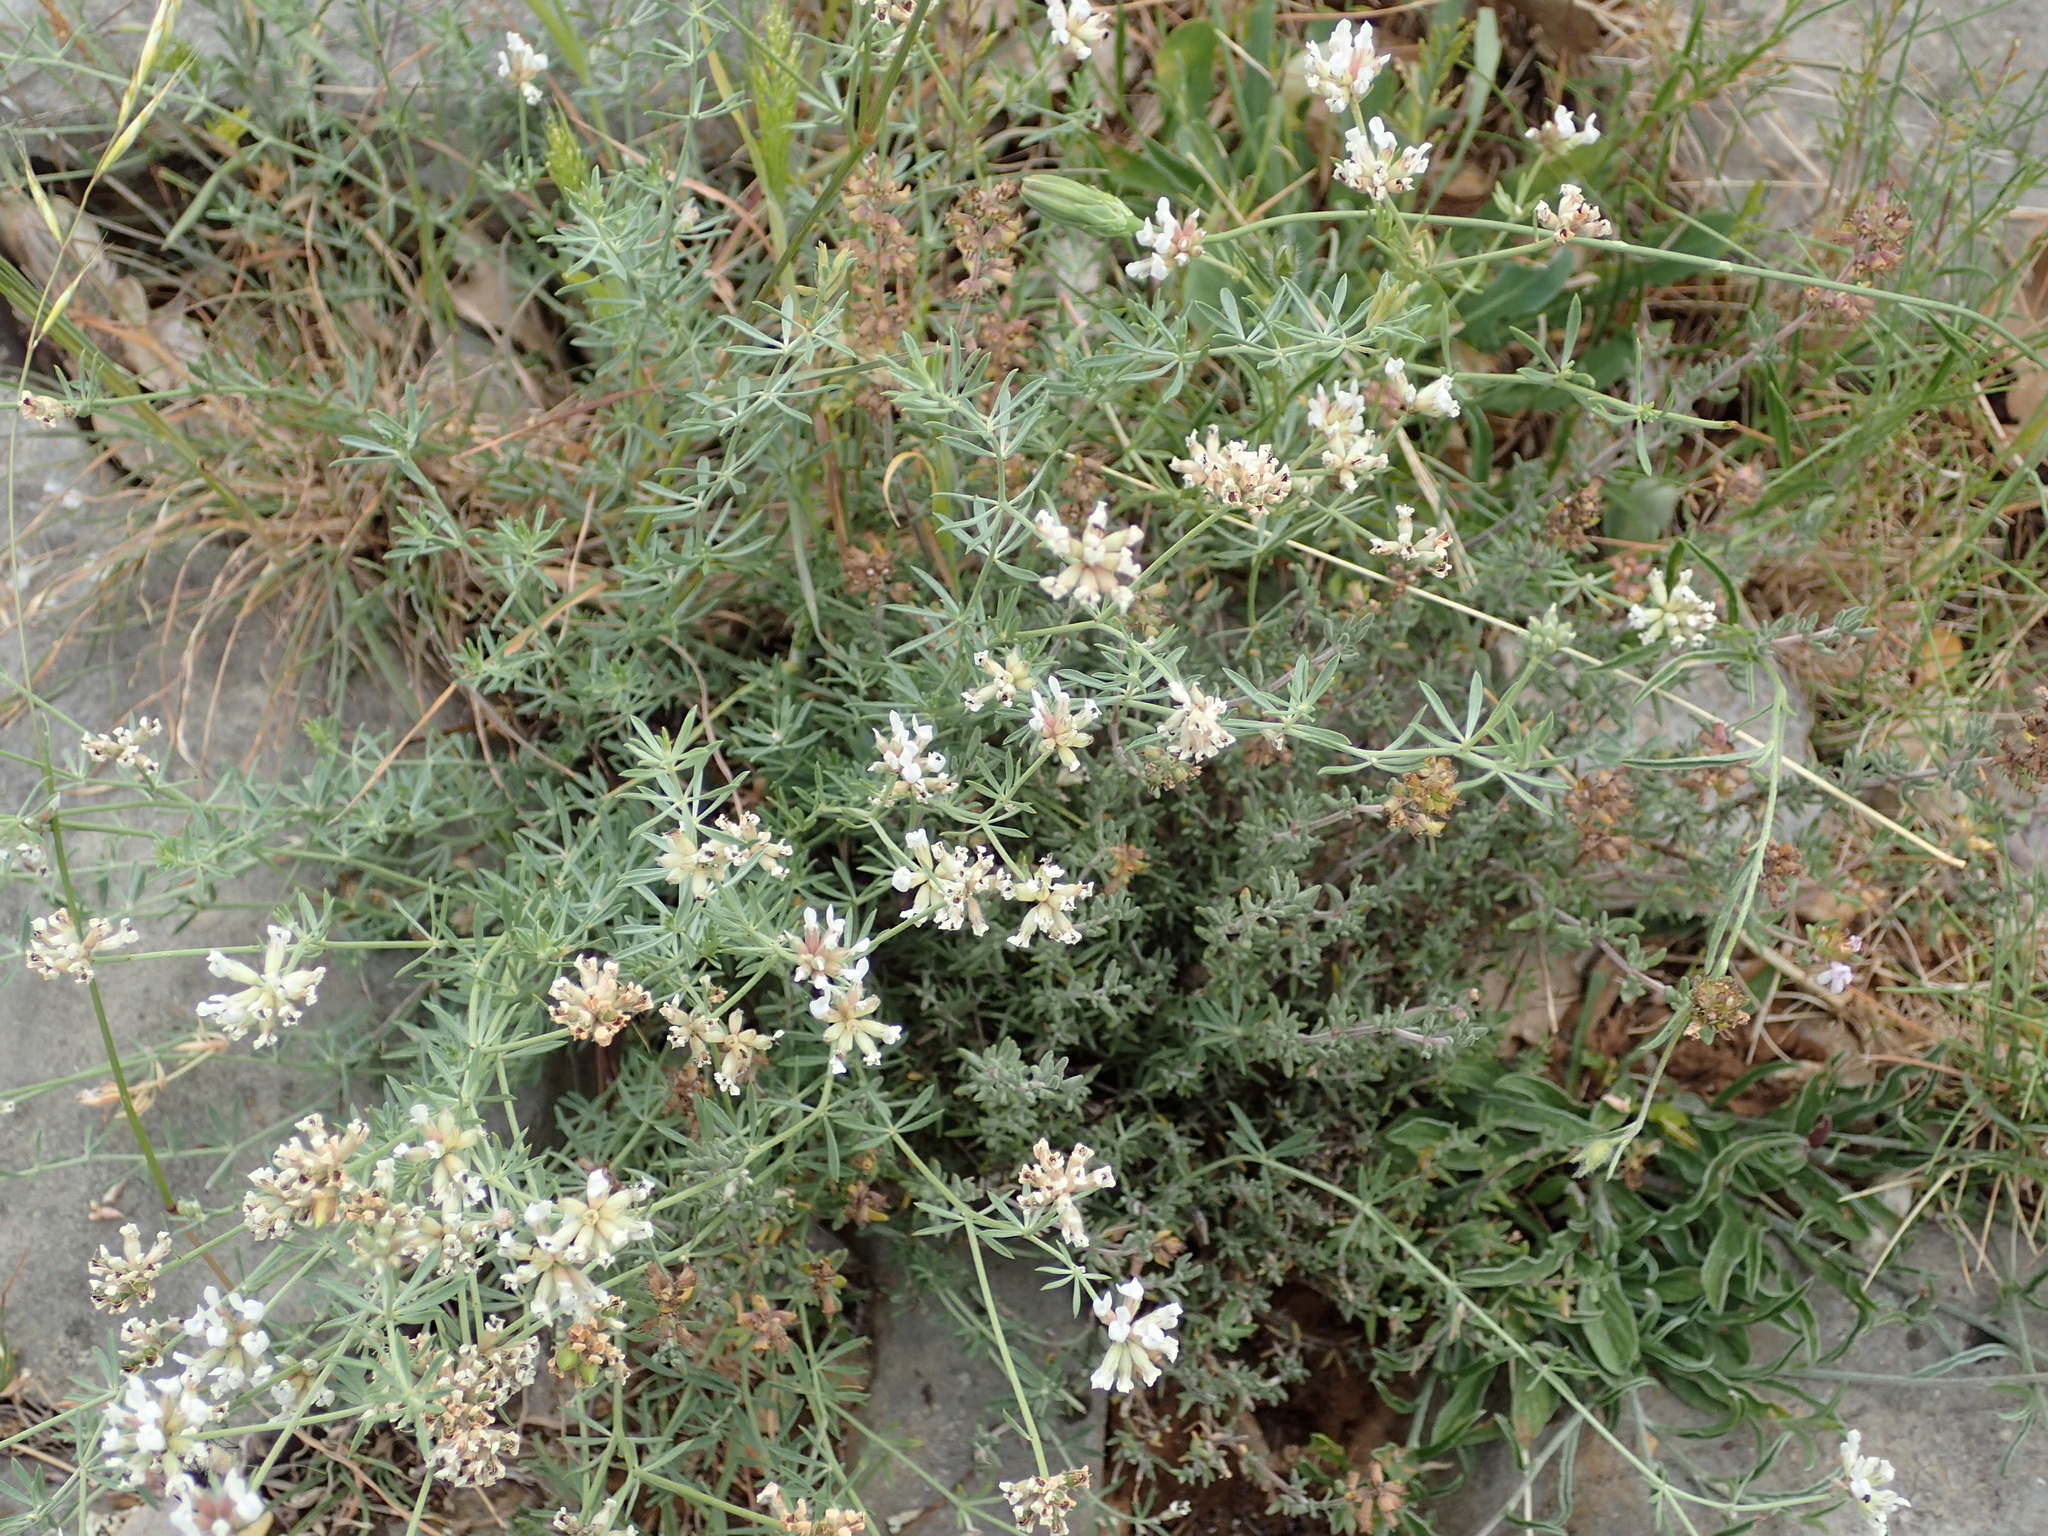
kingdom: Plantae
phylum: Tracheophyta
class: Magnoliopsida
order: Fabales
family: Fabaceae
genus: Lotus
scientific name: Lotus dorycnium
